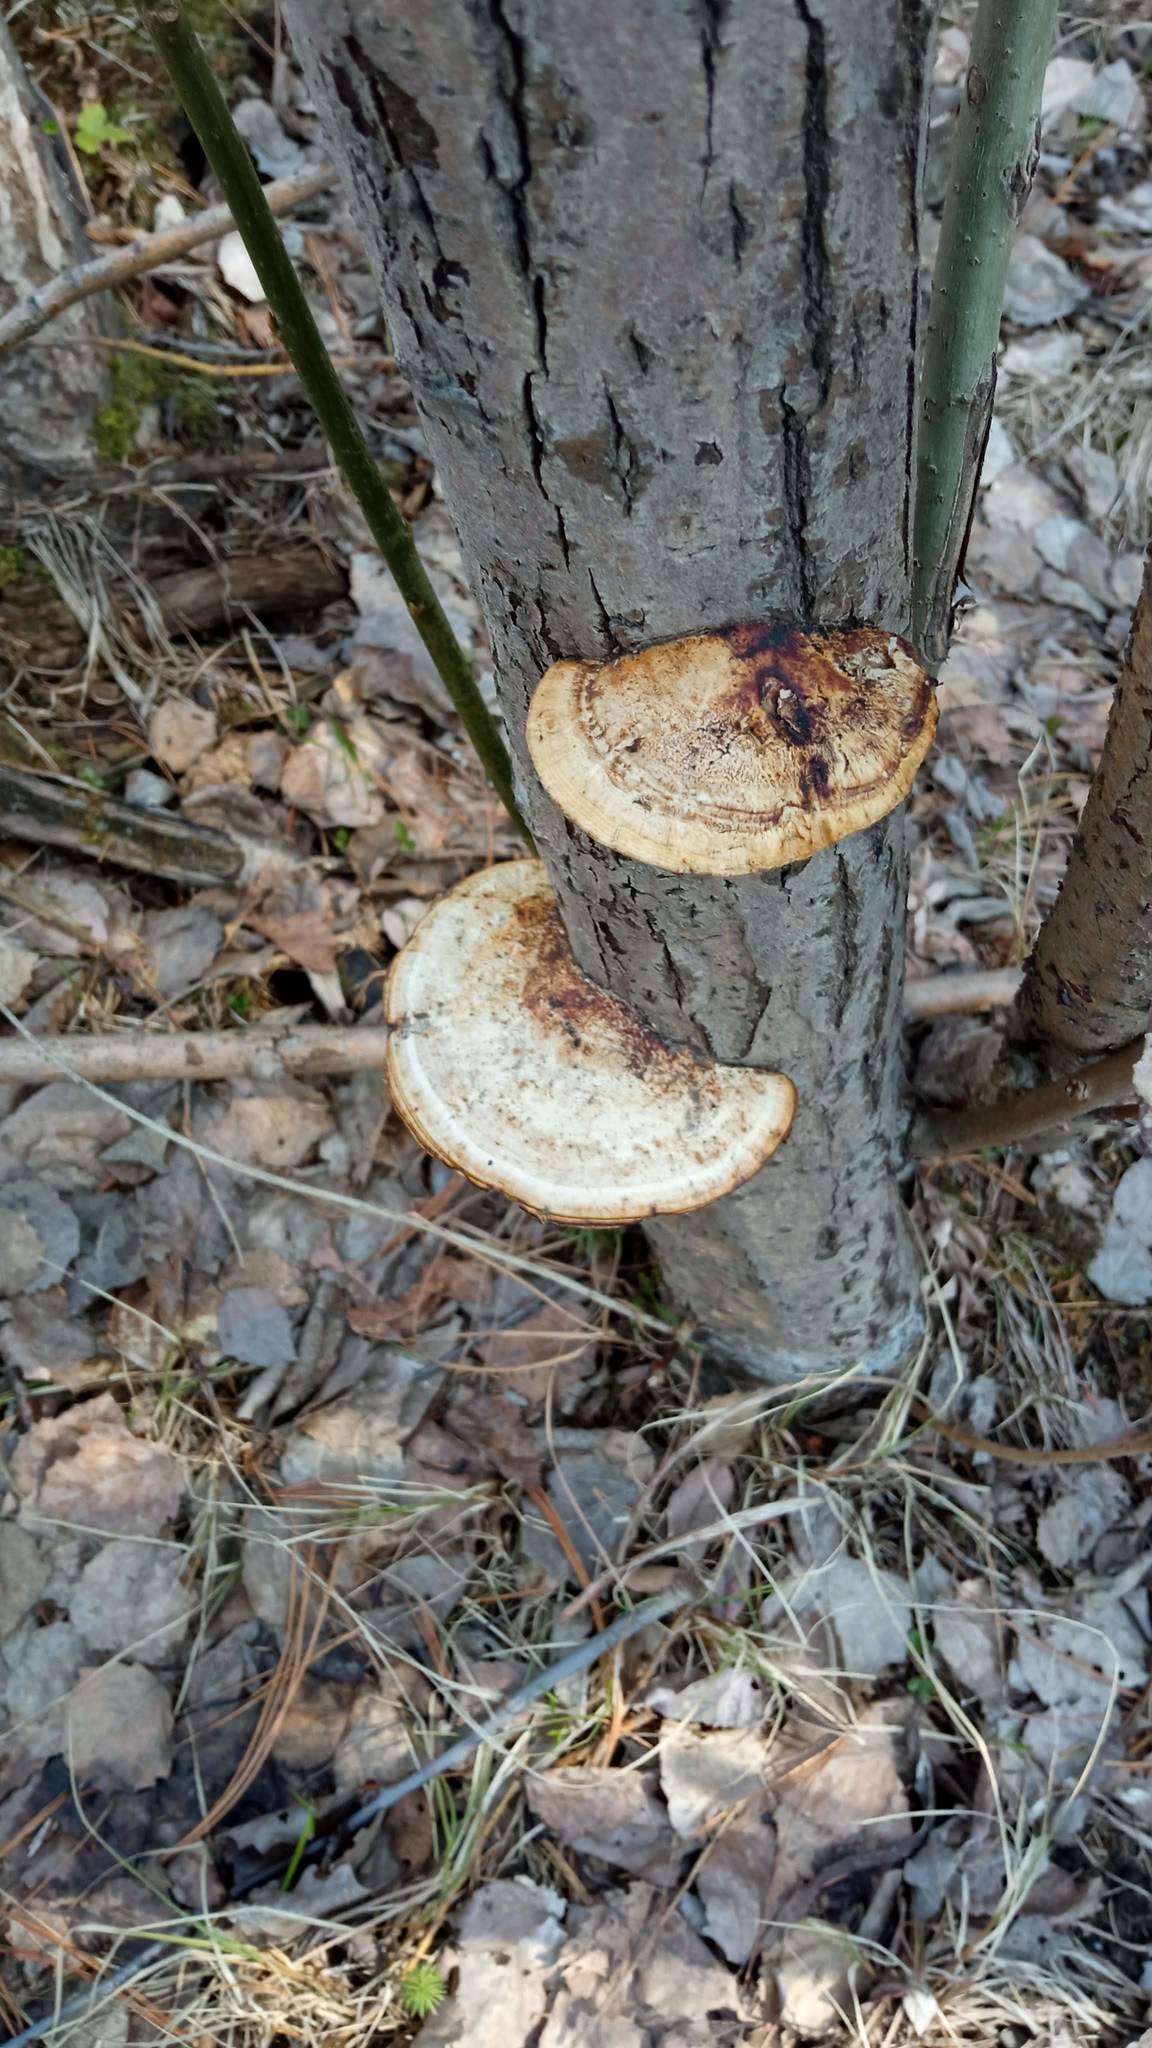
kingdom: Fungi
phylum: Basidiomycota
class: Agaricomycetes
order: Polyporales
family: Polyporaceae
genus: Daedaleopsis
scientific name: Daedaleopsis confragosa
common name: Blushing bracket
